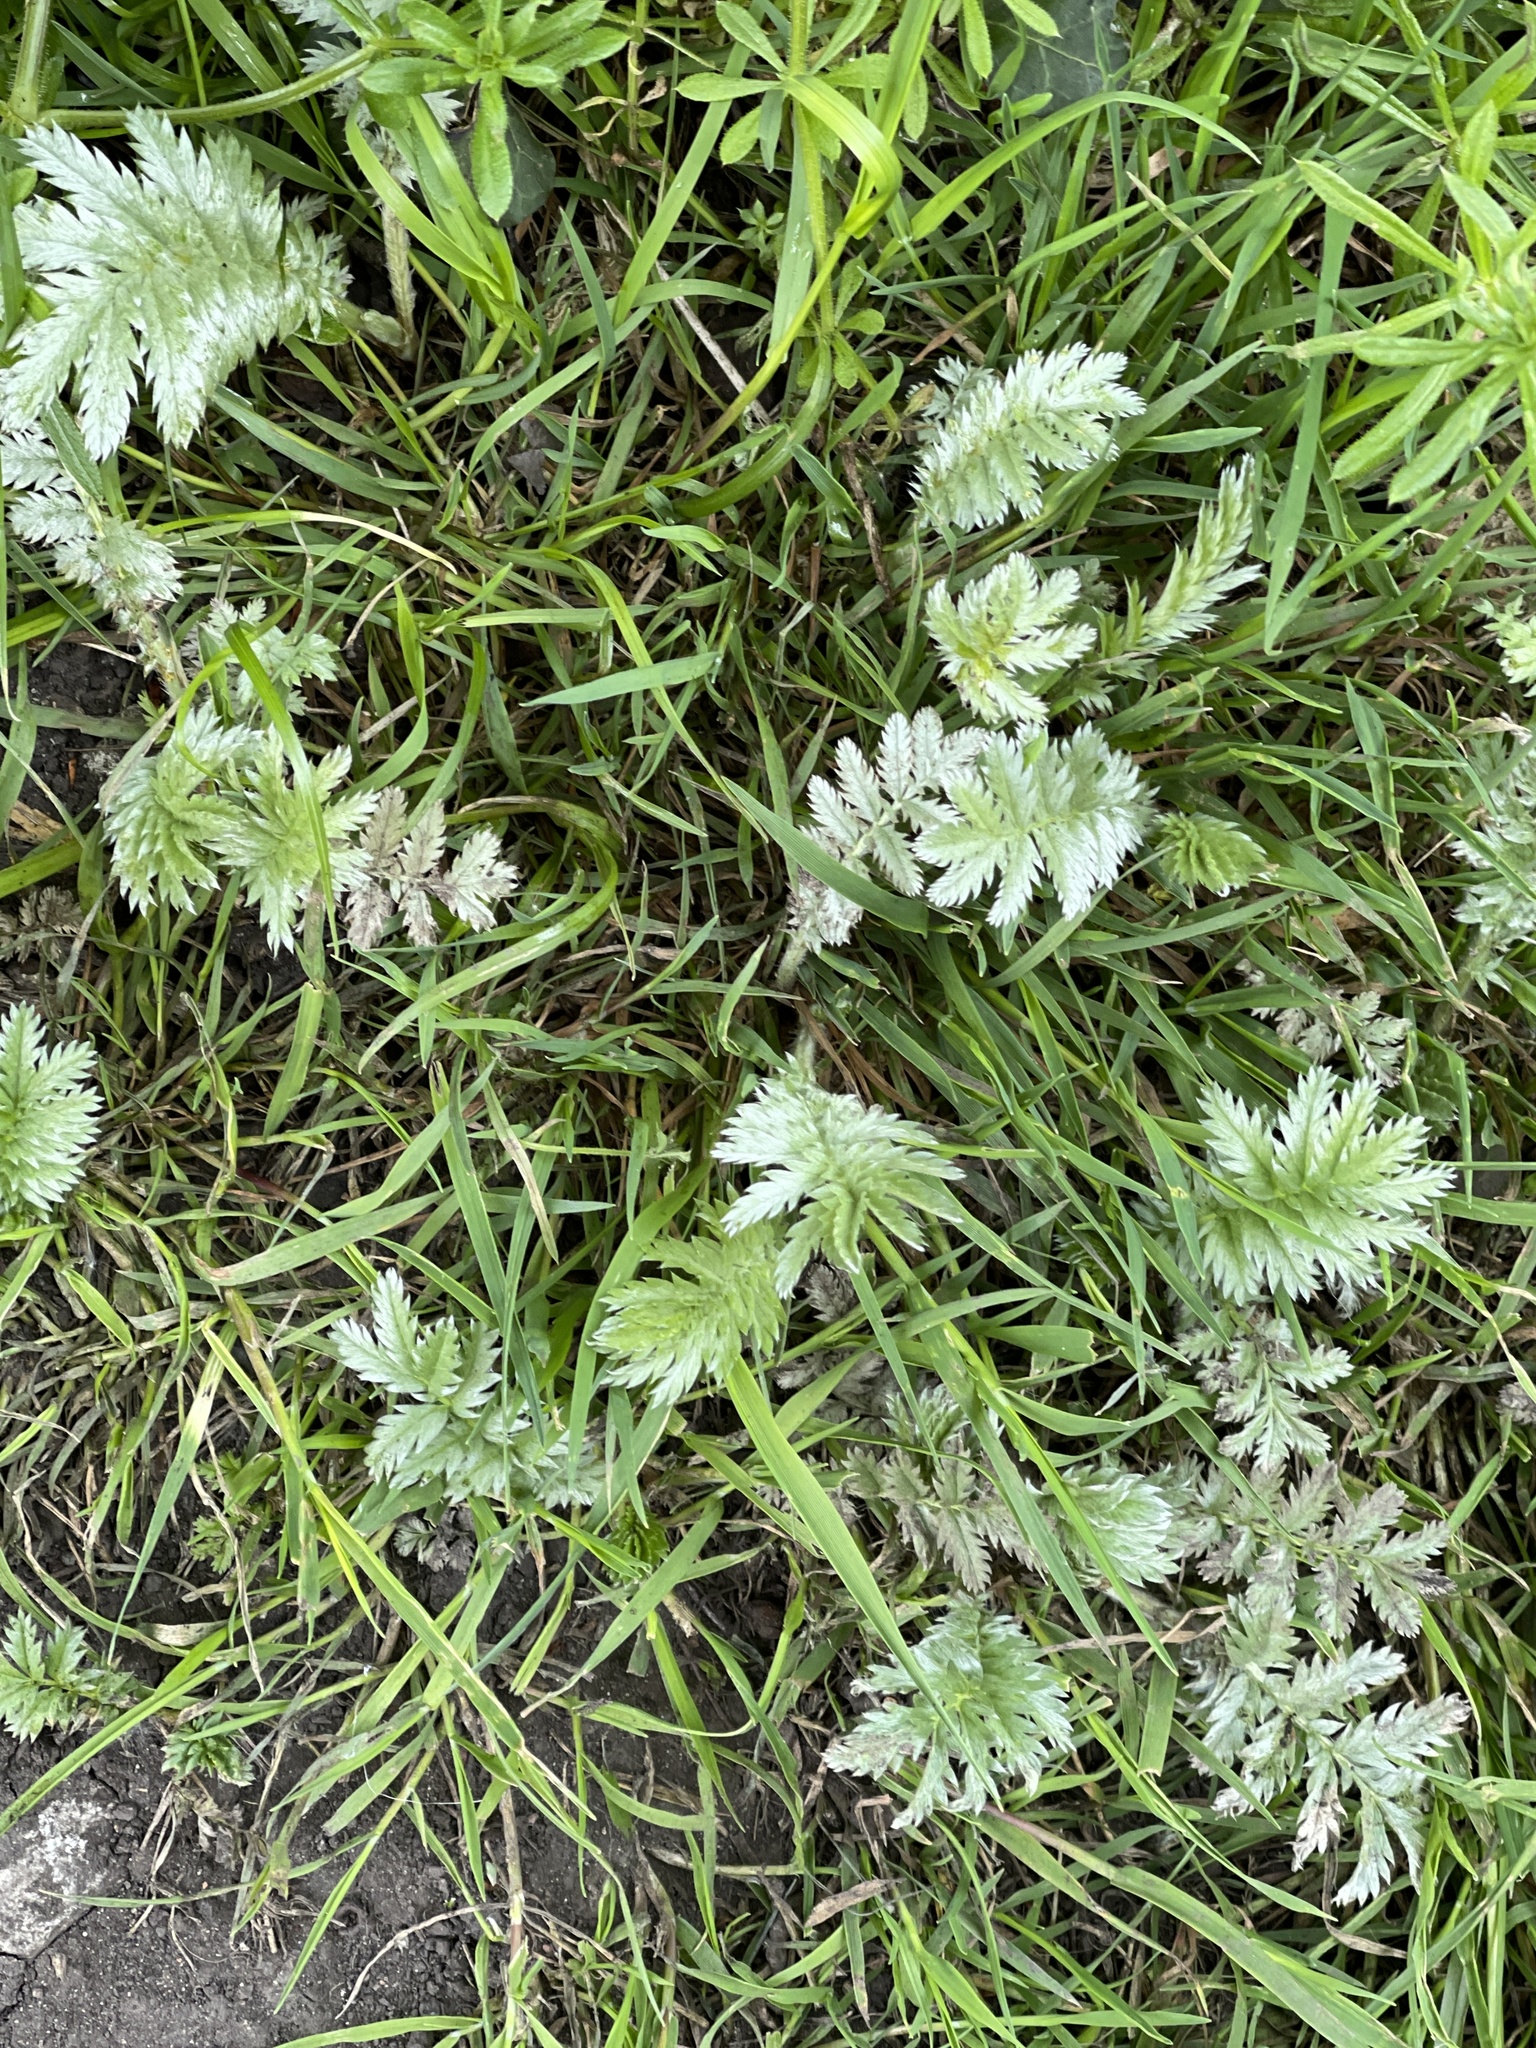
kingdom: Plantae
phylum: Tracheophyta
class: Magnoliopsida
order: Rosales
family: Rosaceae
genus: Argentina
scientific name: Argentina anserina
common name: Common silverweed
